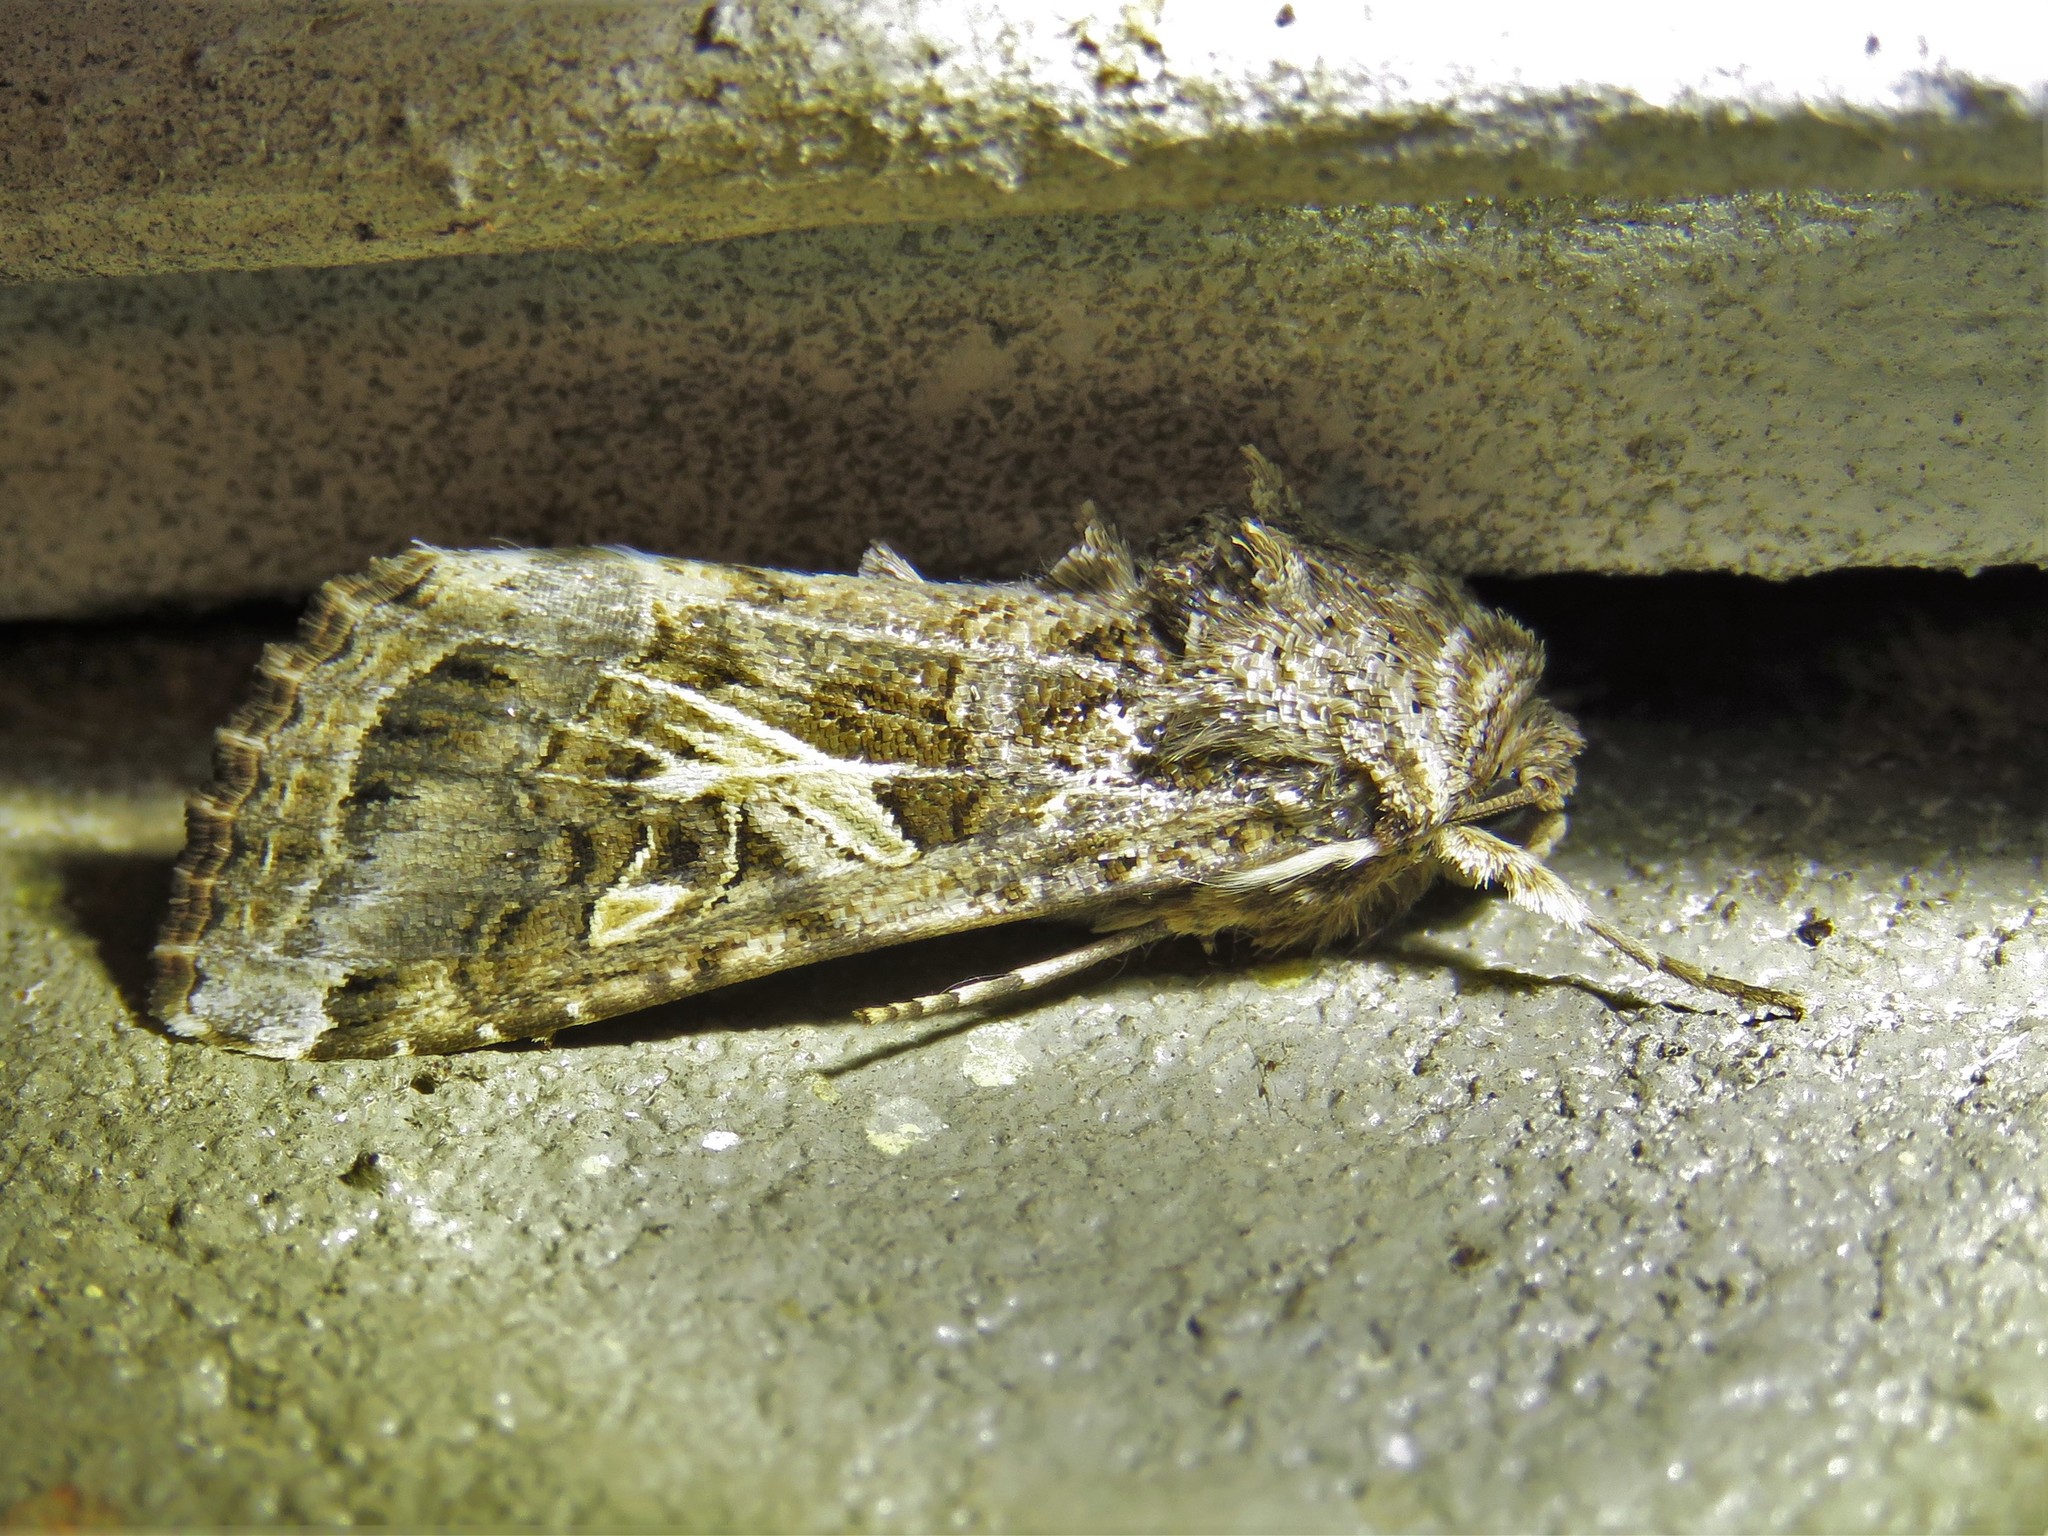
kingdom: Animalia
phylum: Arthropoda
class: Insecta
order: Lepidoptera
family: Noctuidae
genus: Spodoptera
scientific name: Spodoptera ornithogalli
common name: Yellow-striped armyworm
